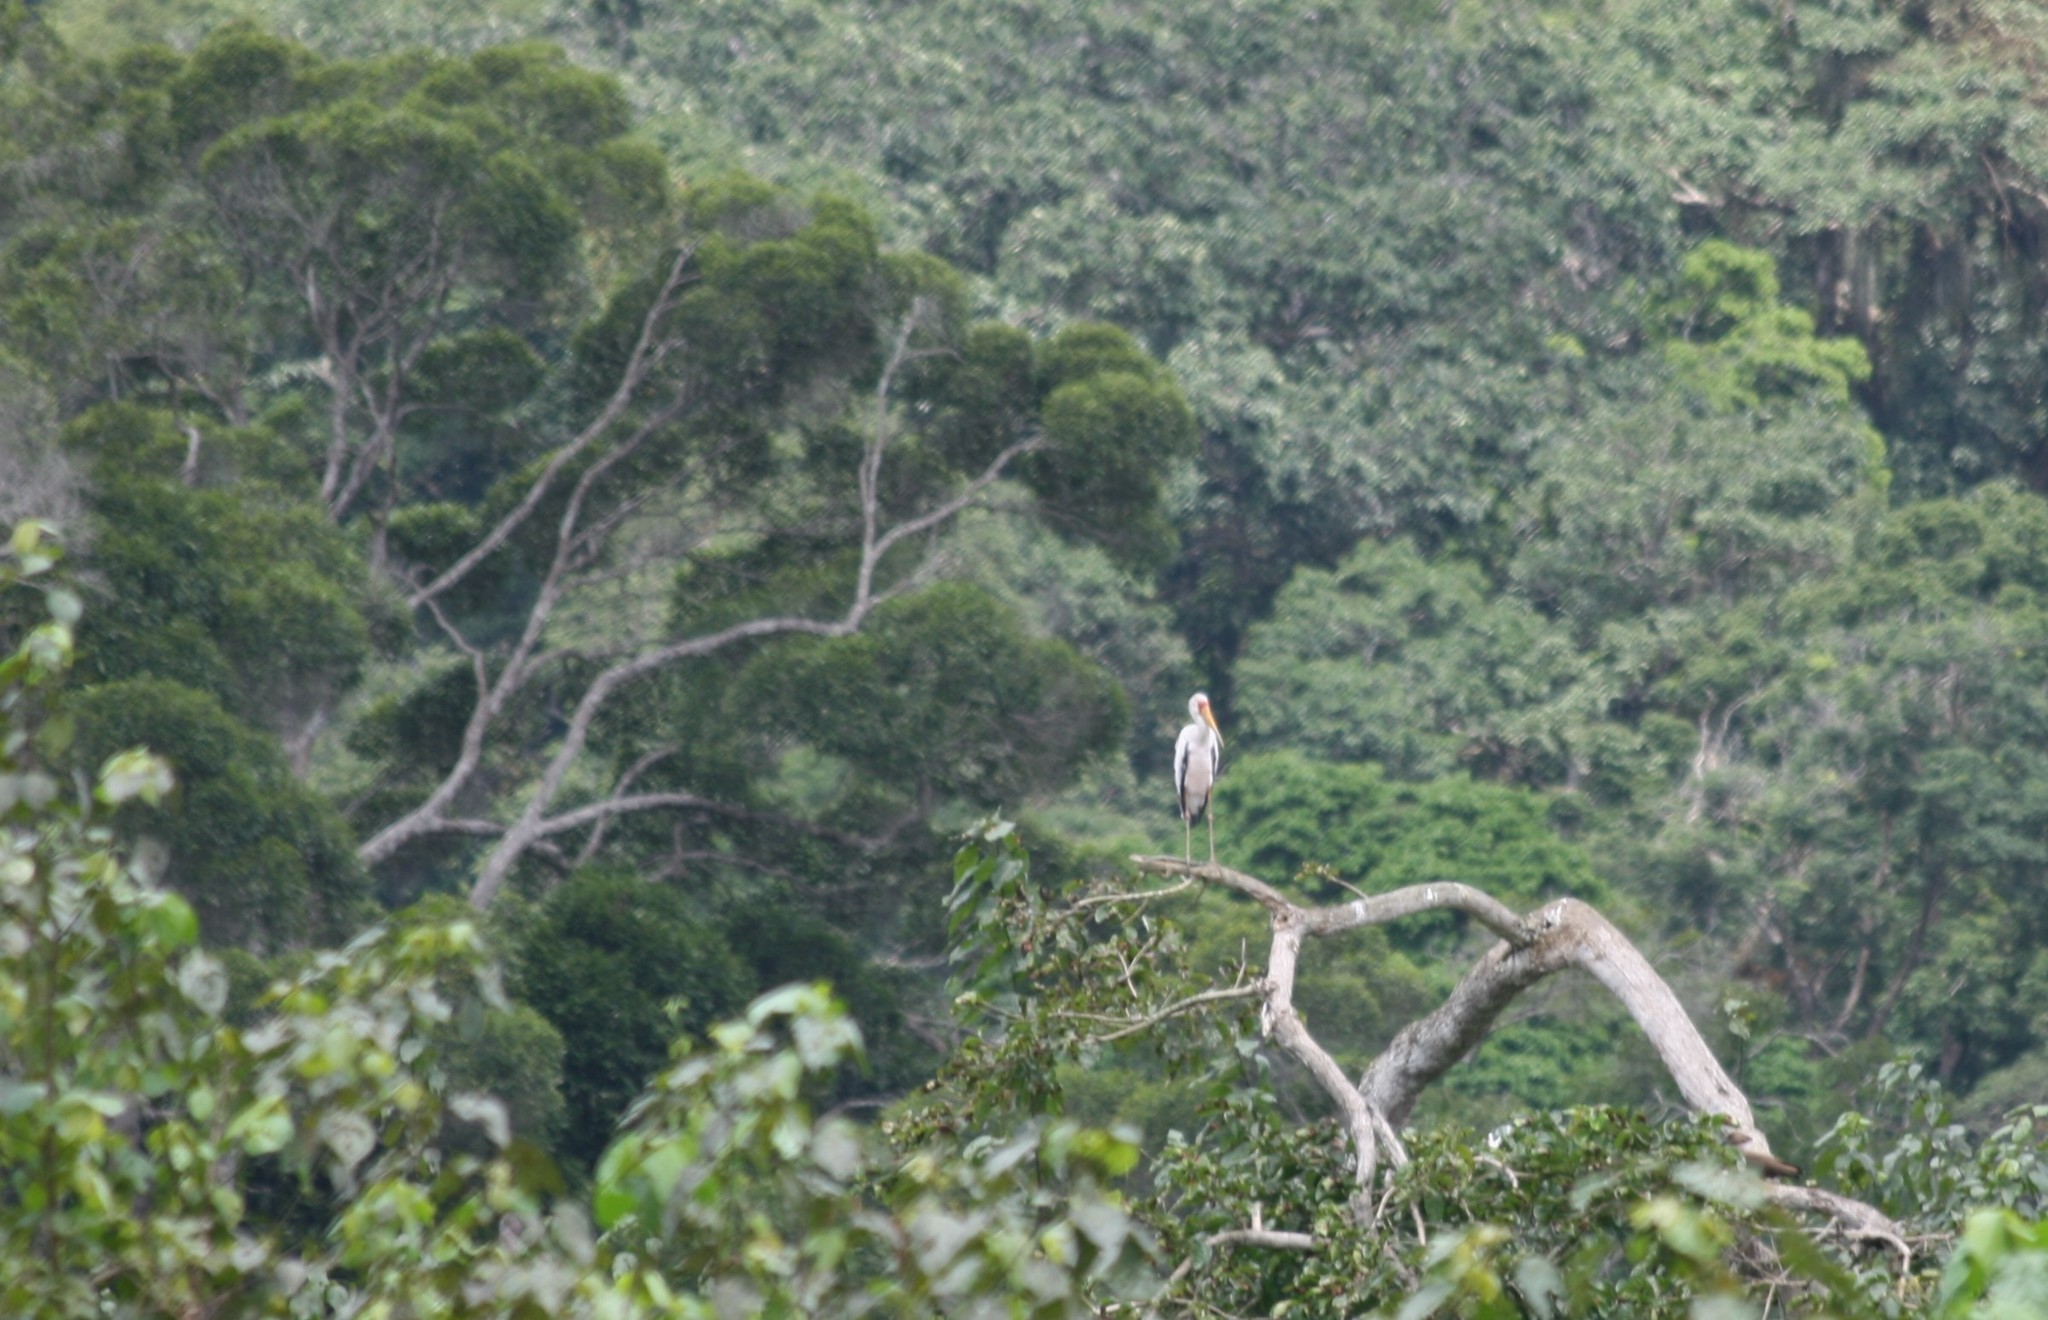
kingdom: Animalia
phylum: Chordata
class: Aves
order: Ciconiiformes
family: Ciconiidae
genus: Mycteria
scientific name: Mycteria ibis
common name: Yellow-billed stork
